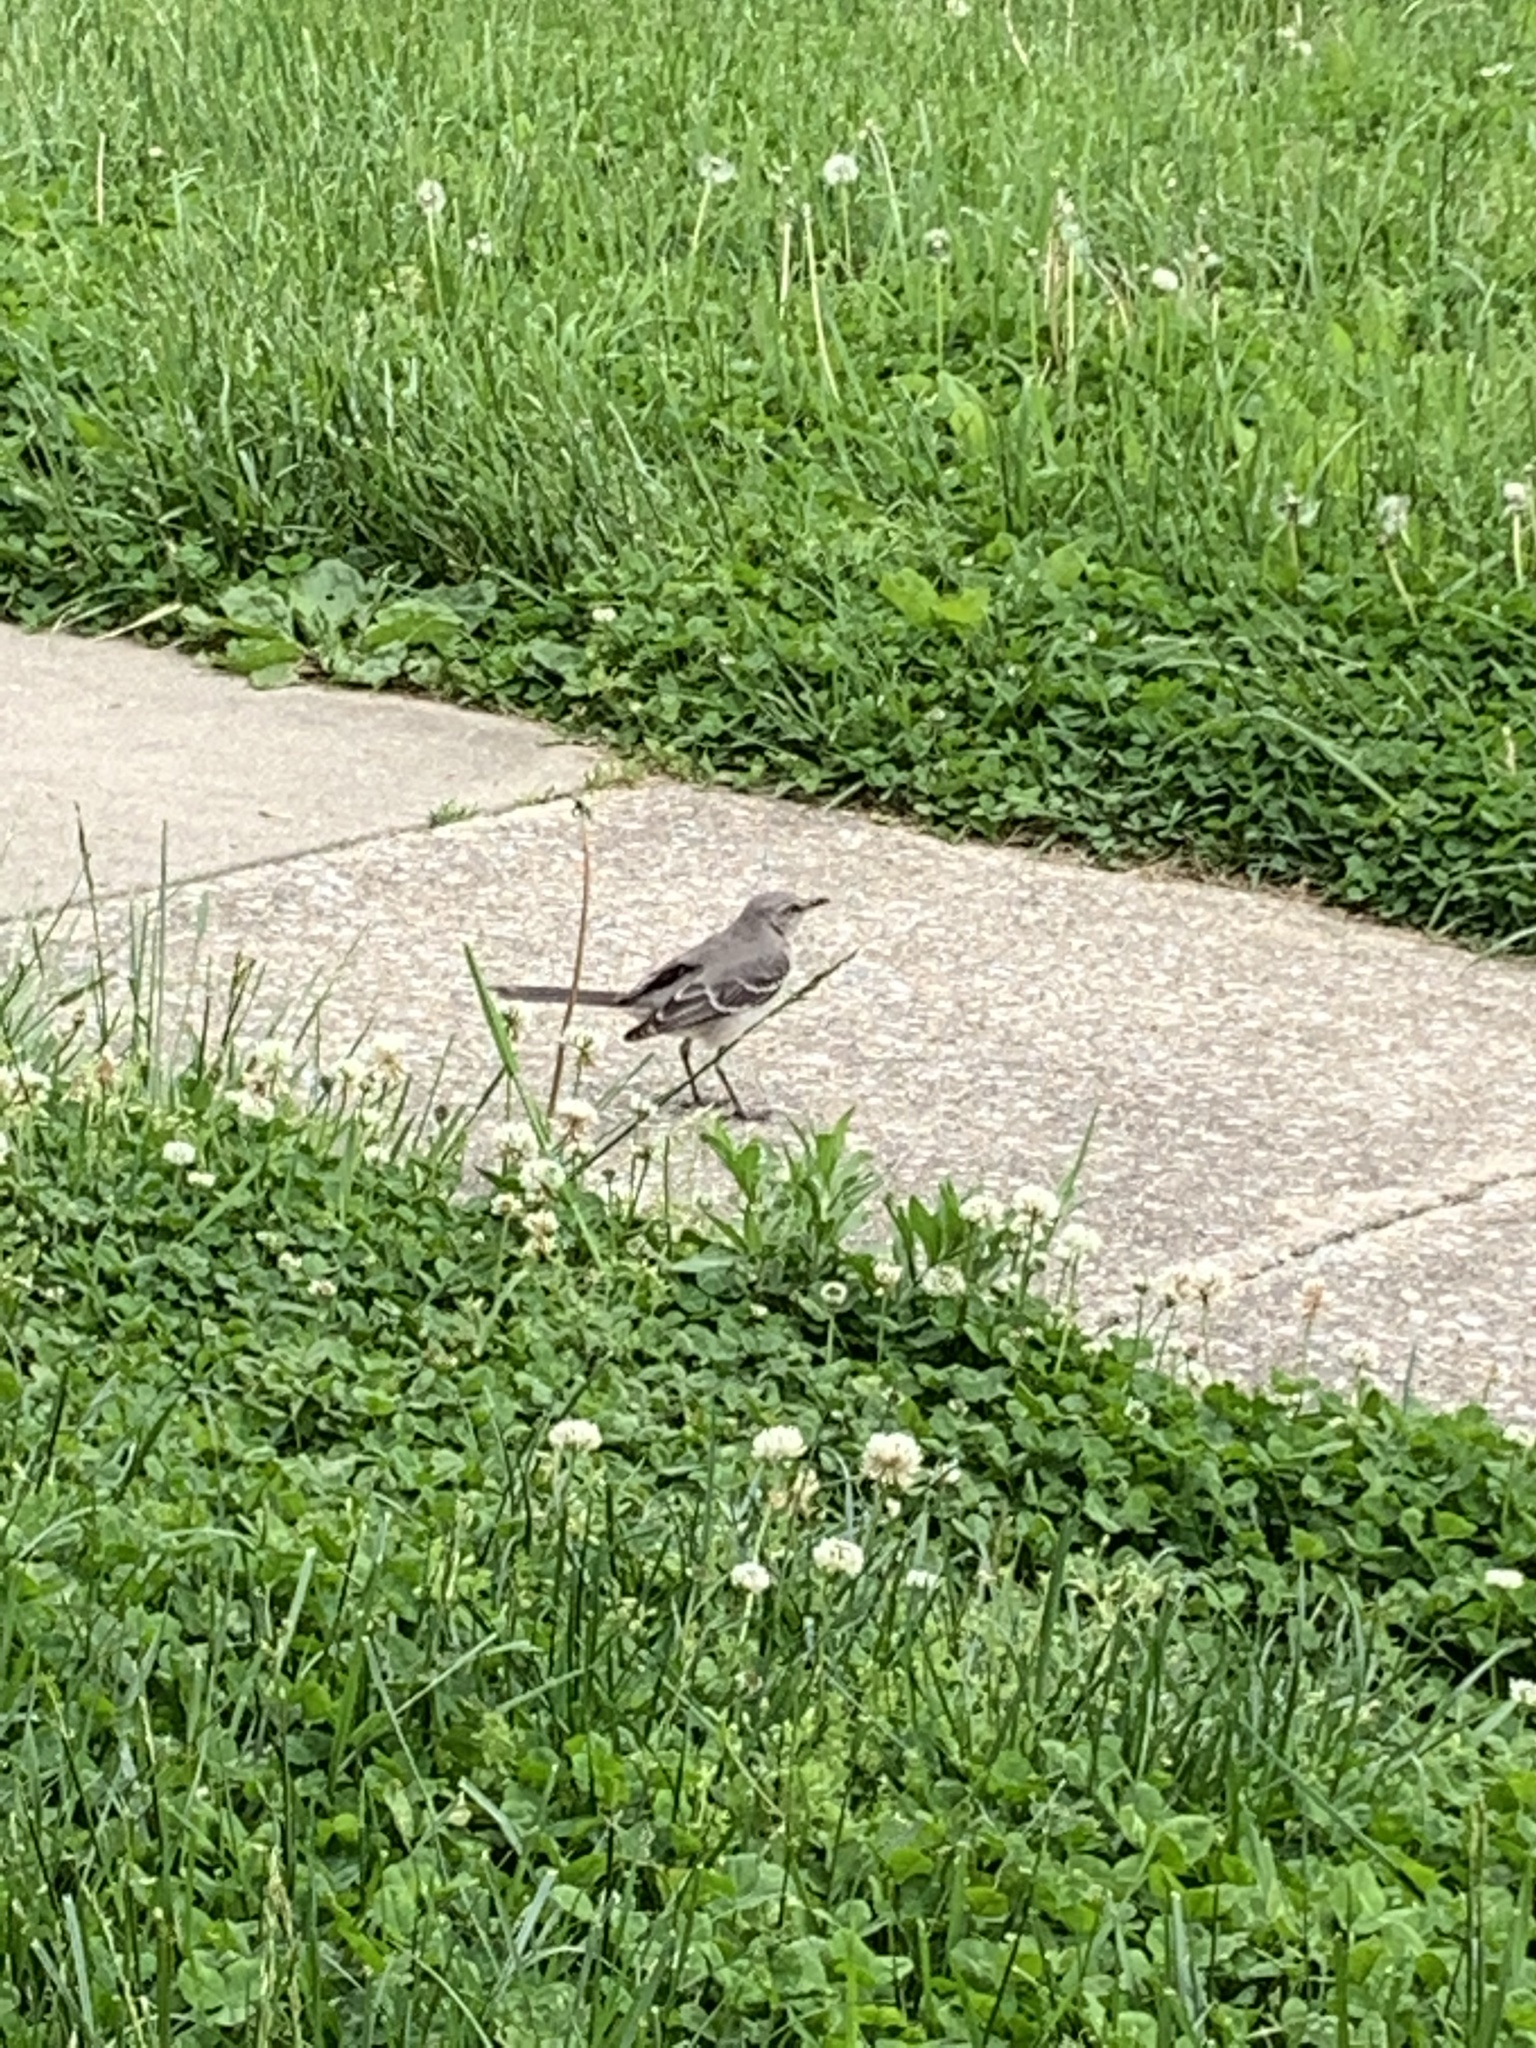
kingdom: Animalia
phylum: Chordata
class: Aves
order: Passeriformes
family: Mimidae
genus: Mimus
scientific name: Mimus polyglottos
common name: Northern mockingbird
